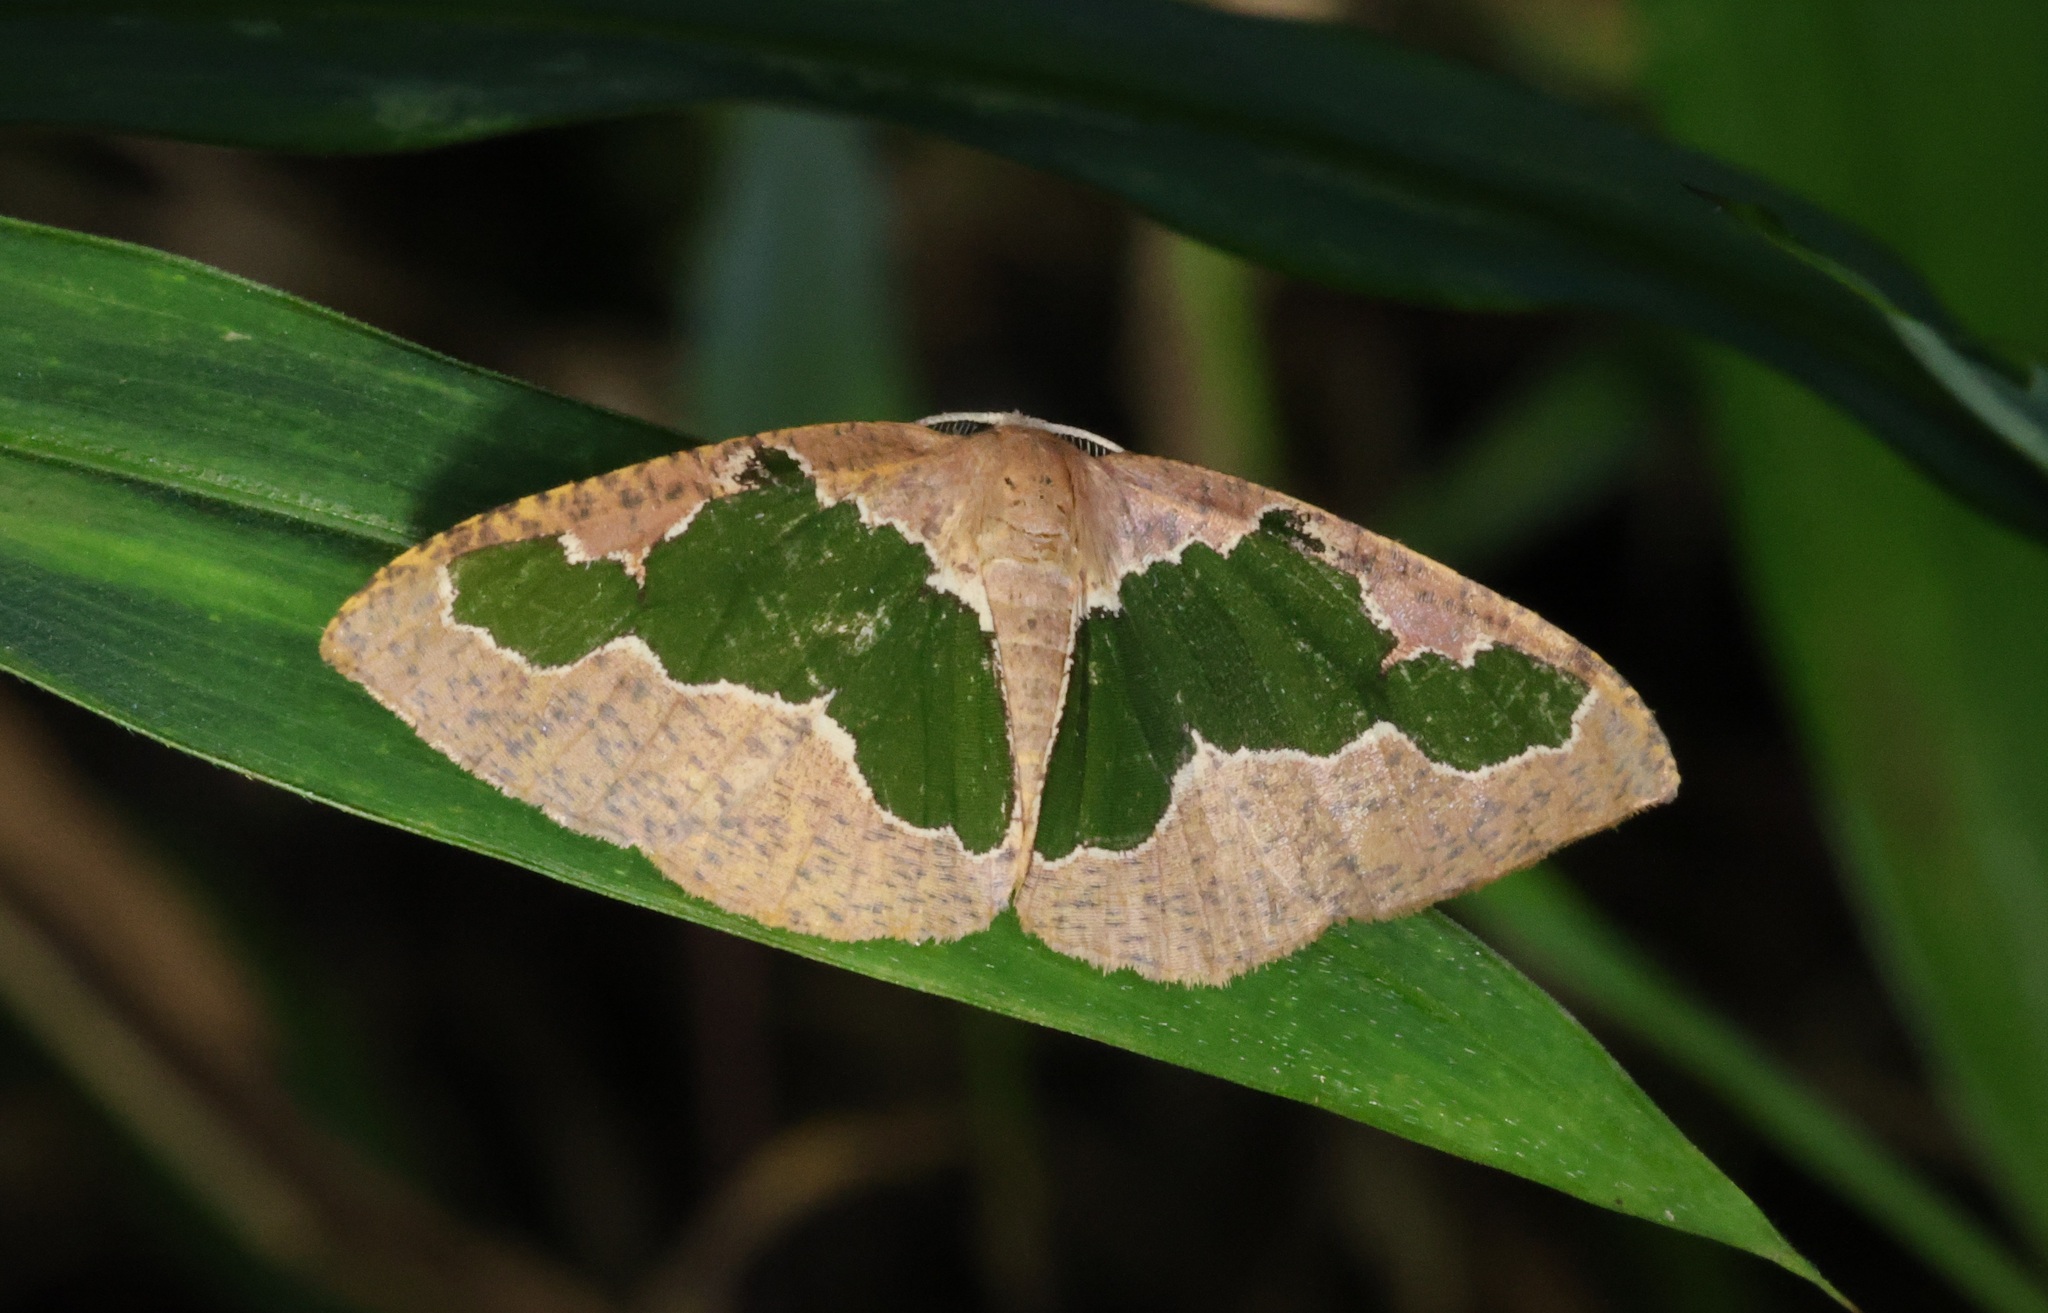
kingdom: Animalia
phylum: Arthropoda
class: Insecta
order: Lepidoptera
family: Geometridae
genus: Celenna
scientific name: Celenna festivaria
